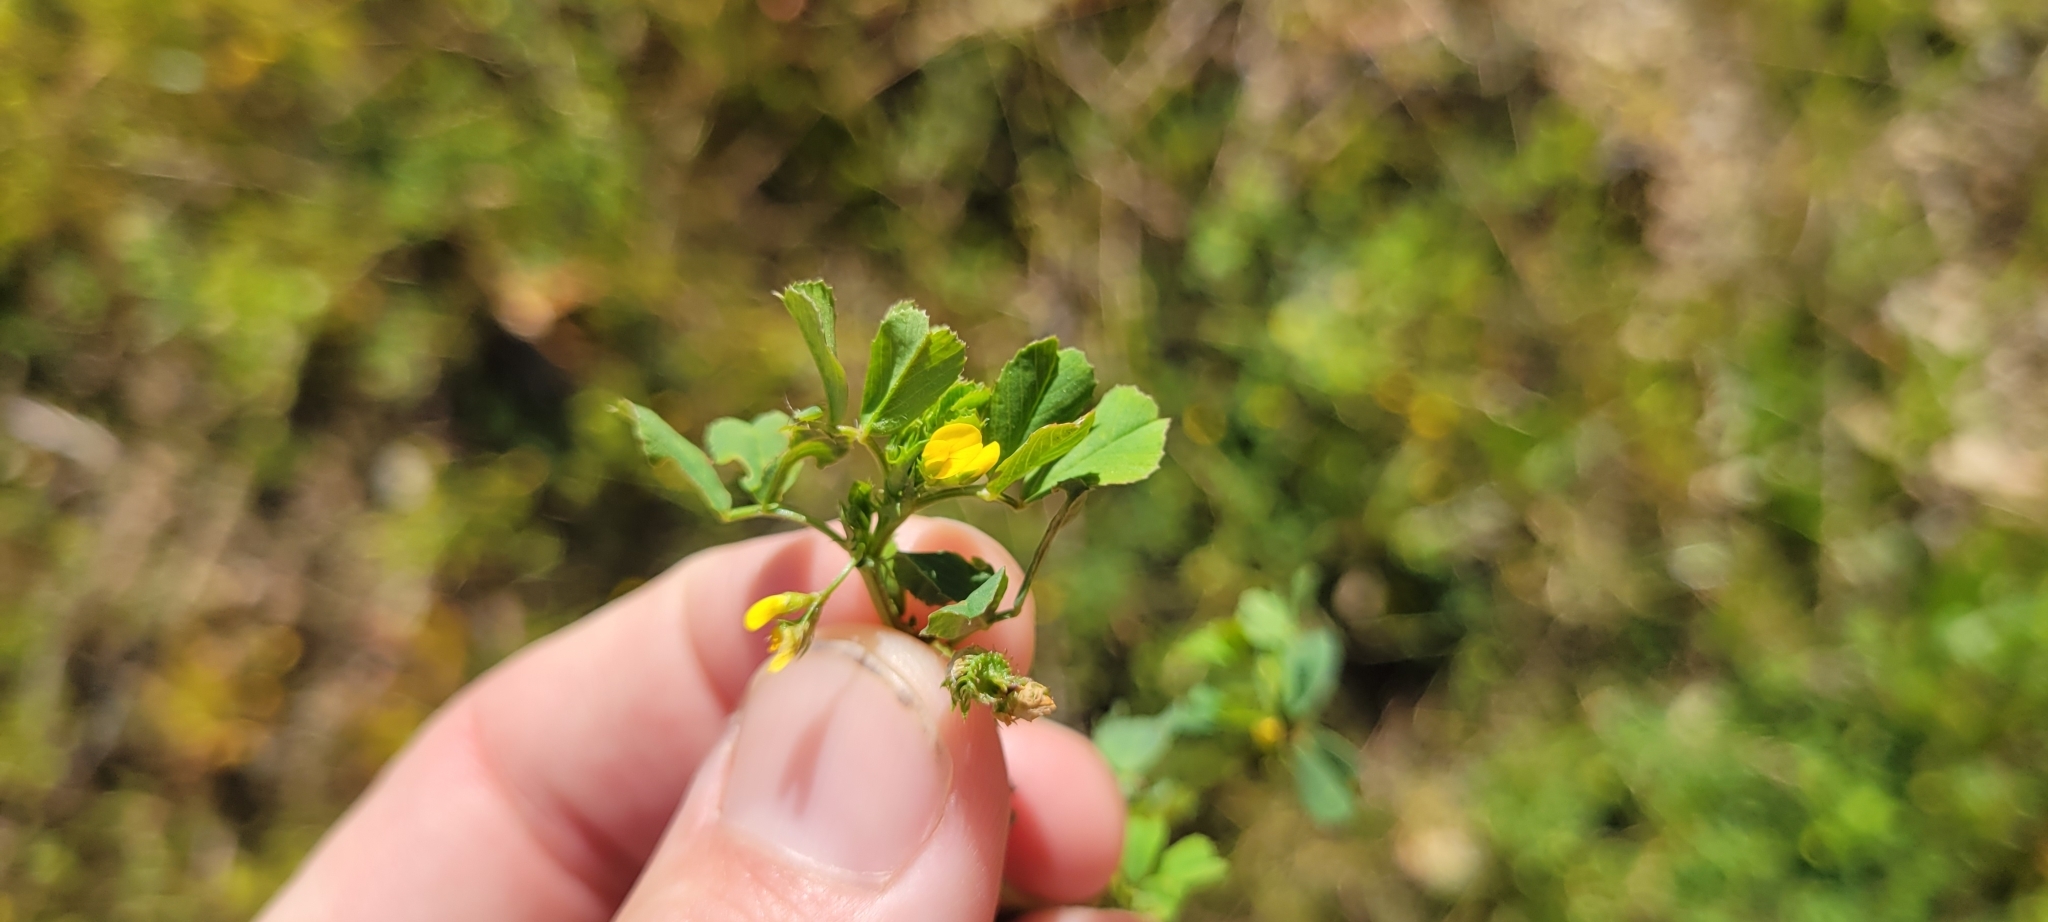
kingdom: Plantae
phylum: Tracheophyta
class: Magnoliopsida
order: Fabales
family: Fabaceae
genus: Medicago
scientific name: Medicago polymorpha
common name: Burclover
